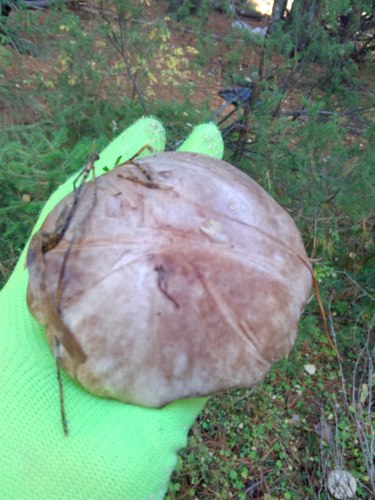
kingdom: Fungi
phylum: Basidiomycota
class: Agaricomycetes
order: Boletales
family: Suillaceae
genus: Suillus
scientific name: Suillus
